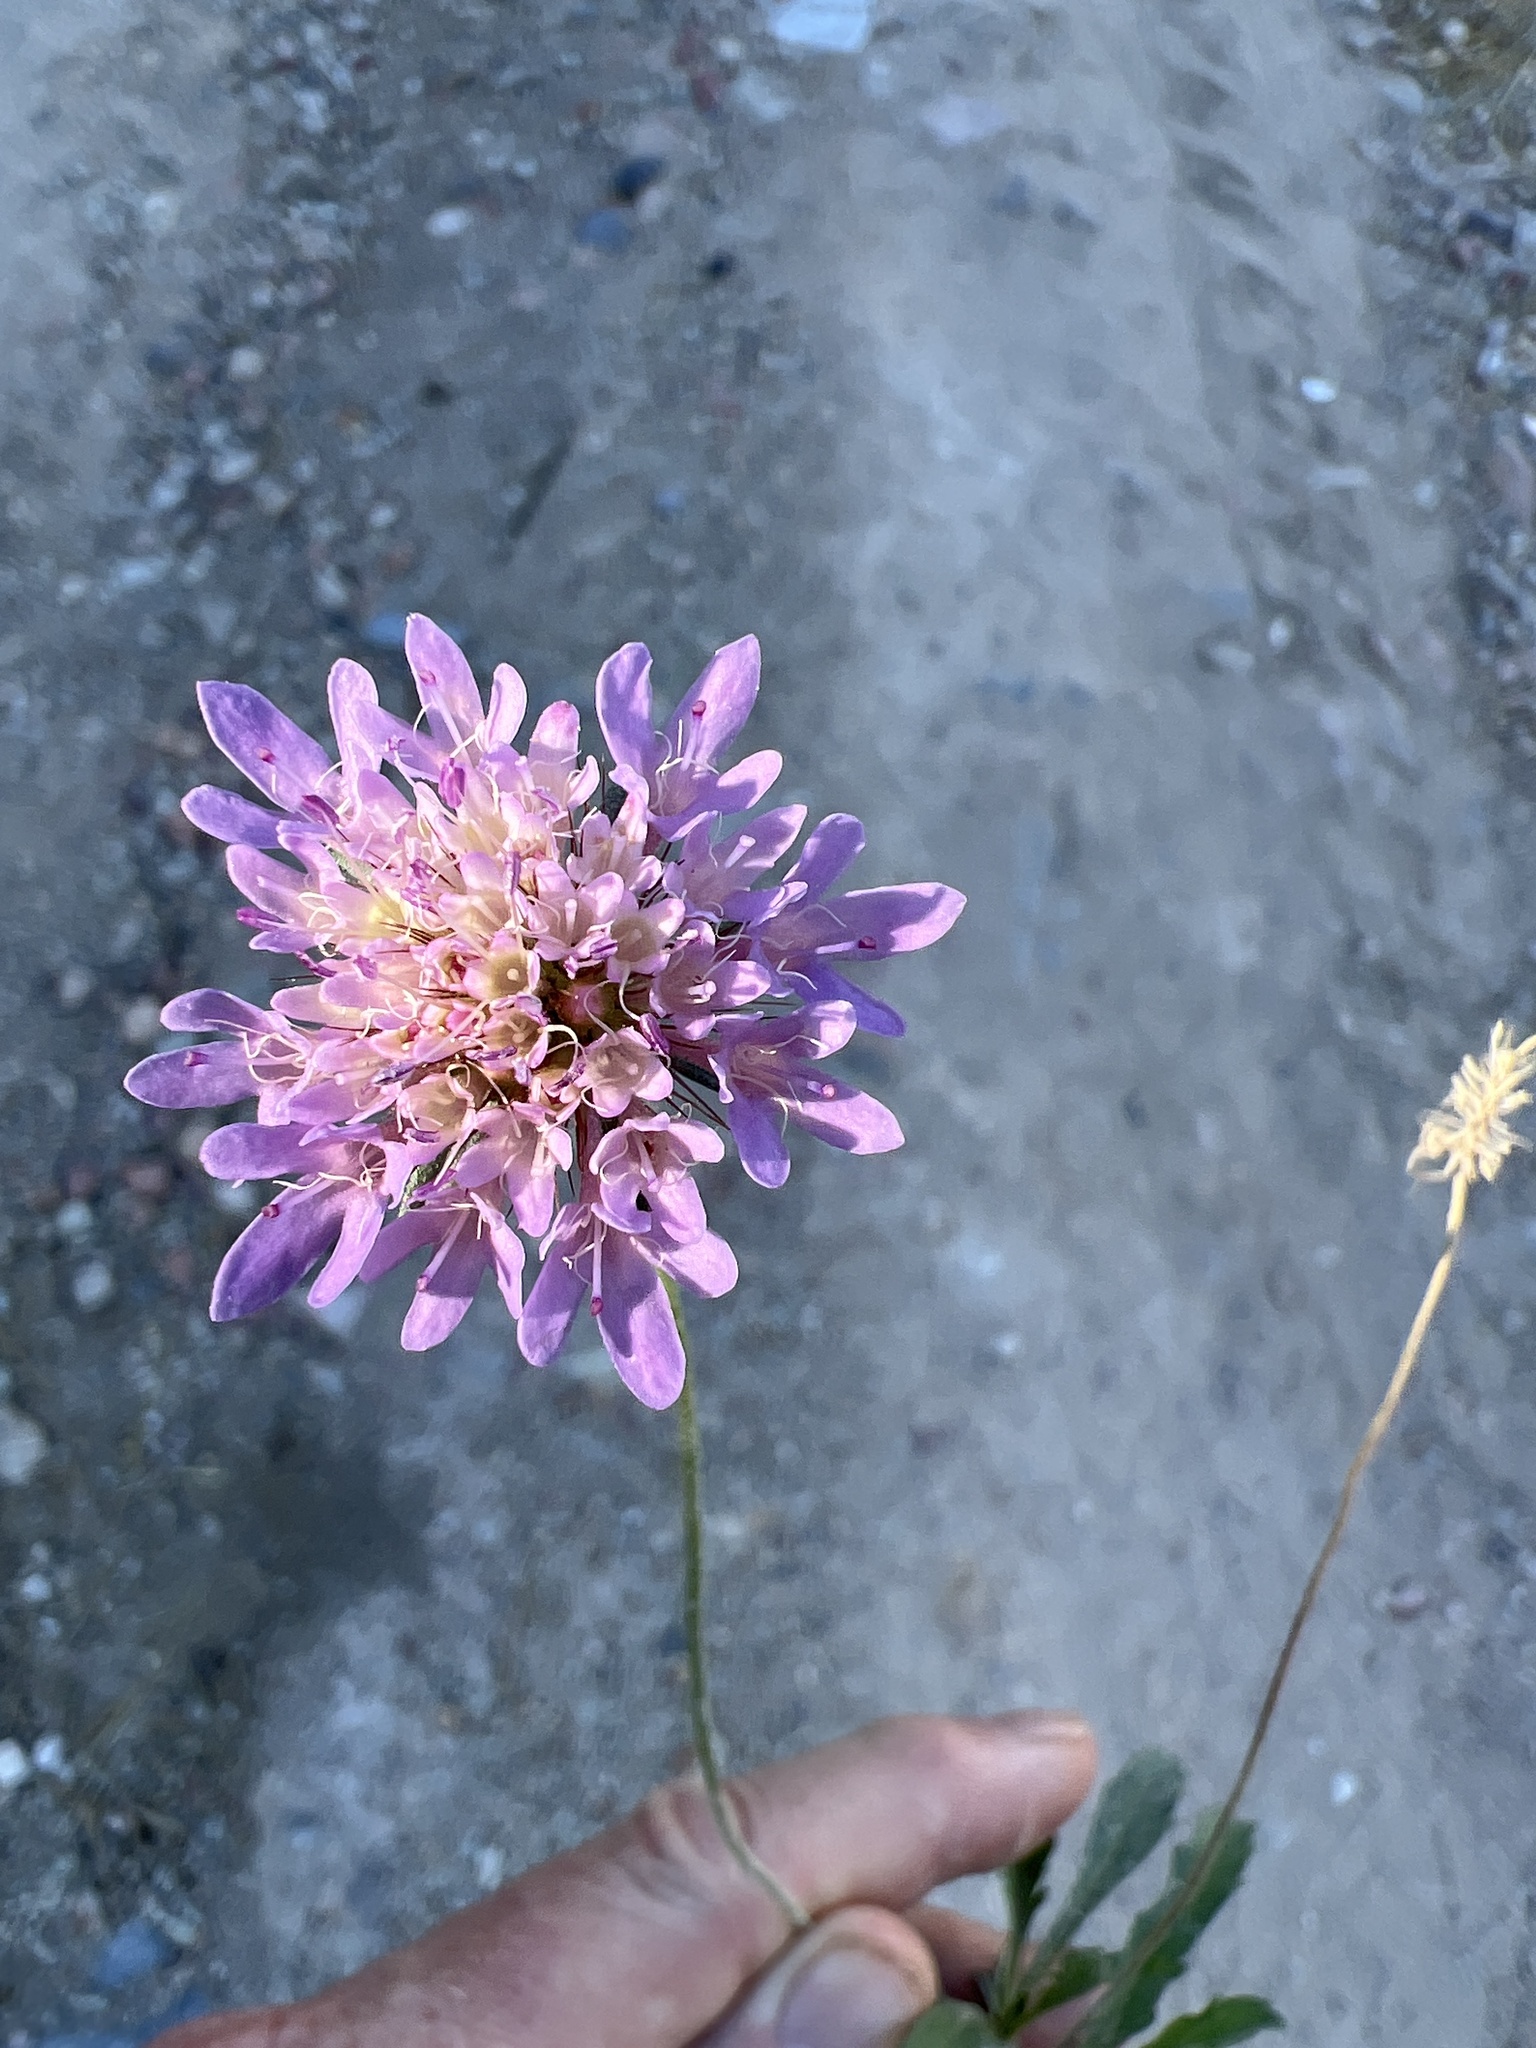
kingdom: Plantae
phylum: Tracheophyta
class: Magnoliopsida
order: Dipsacales
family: Caprifoliaceae
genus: Sixalix
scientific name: Sixalix atropurpurea
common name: Sweet scabious
